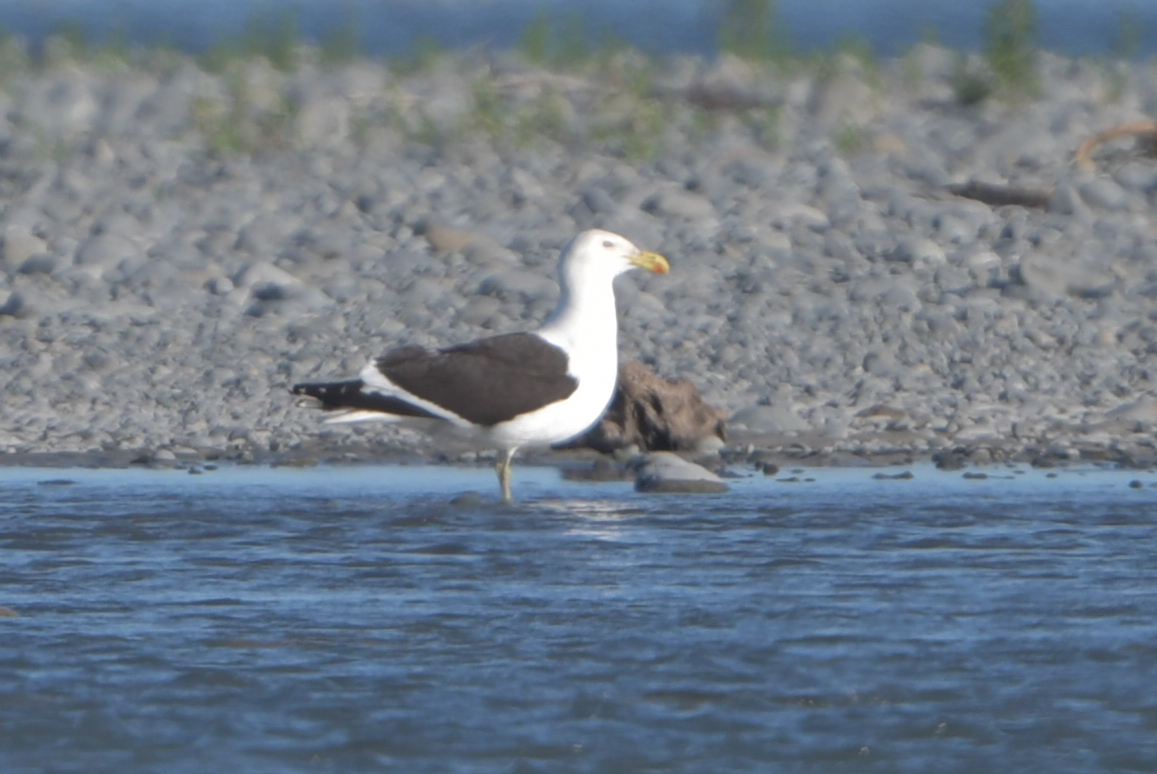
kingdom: Animalia
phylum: Chordata
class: Aves
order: Charadriiformes
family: Laridae
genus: Larus
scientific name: Larus dominicanus
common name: Kelp gull
